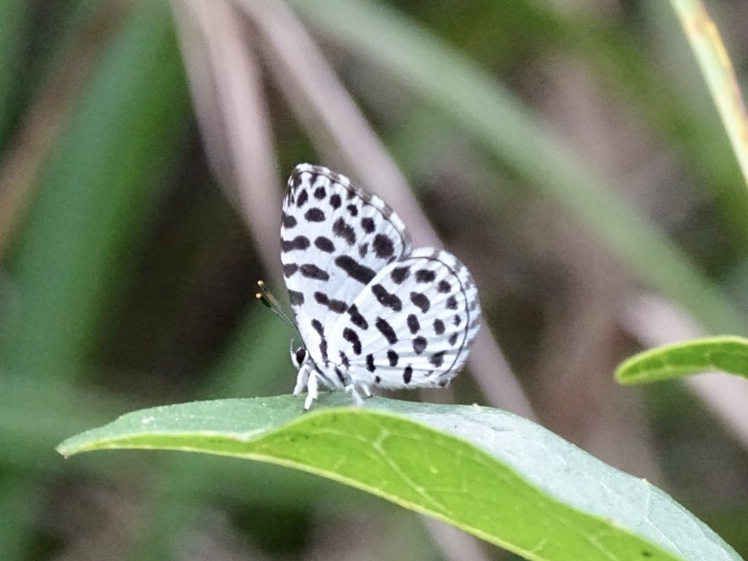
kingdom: Animalia
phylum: Arthropoda
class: Insecta
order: Lepidoptera
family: Lycaenidae
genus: Taraka
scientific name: Taraka hamada
